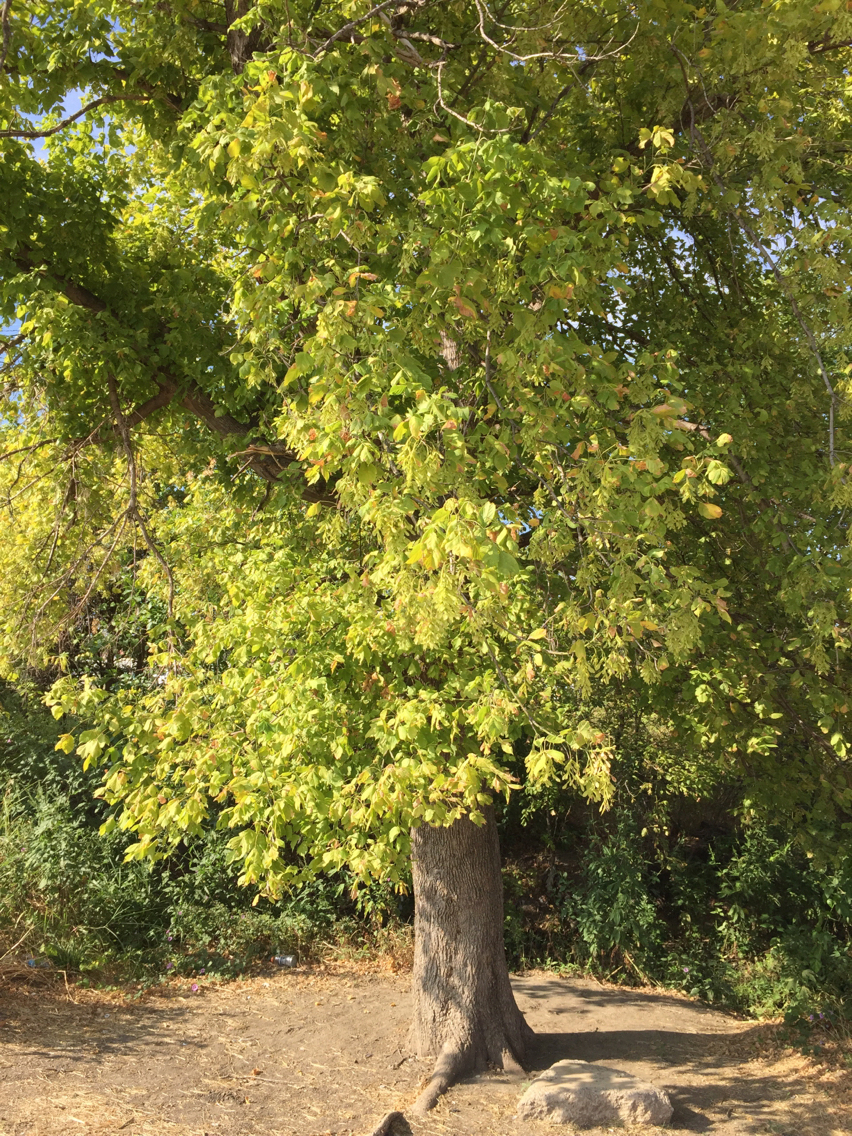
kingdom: Plantae
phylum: Tracheophyta
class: Magnoliopsida
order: Sapindales
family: Sapindaceae
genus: Acer
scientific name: Acer negundo
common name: Ashleaf maple
